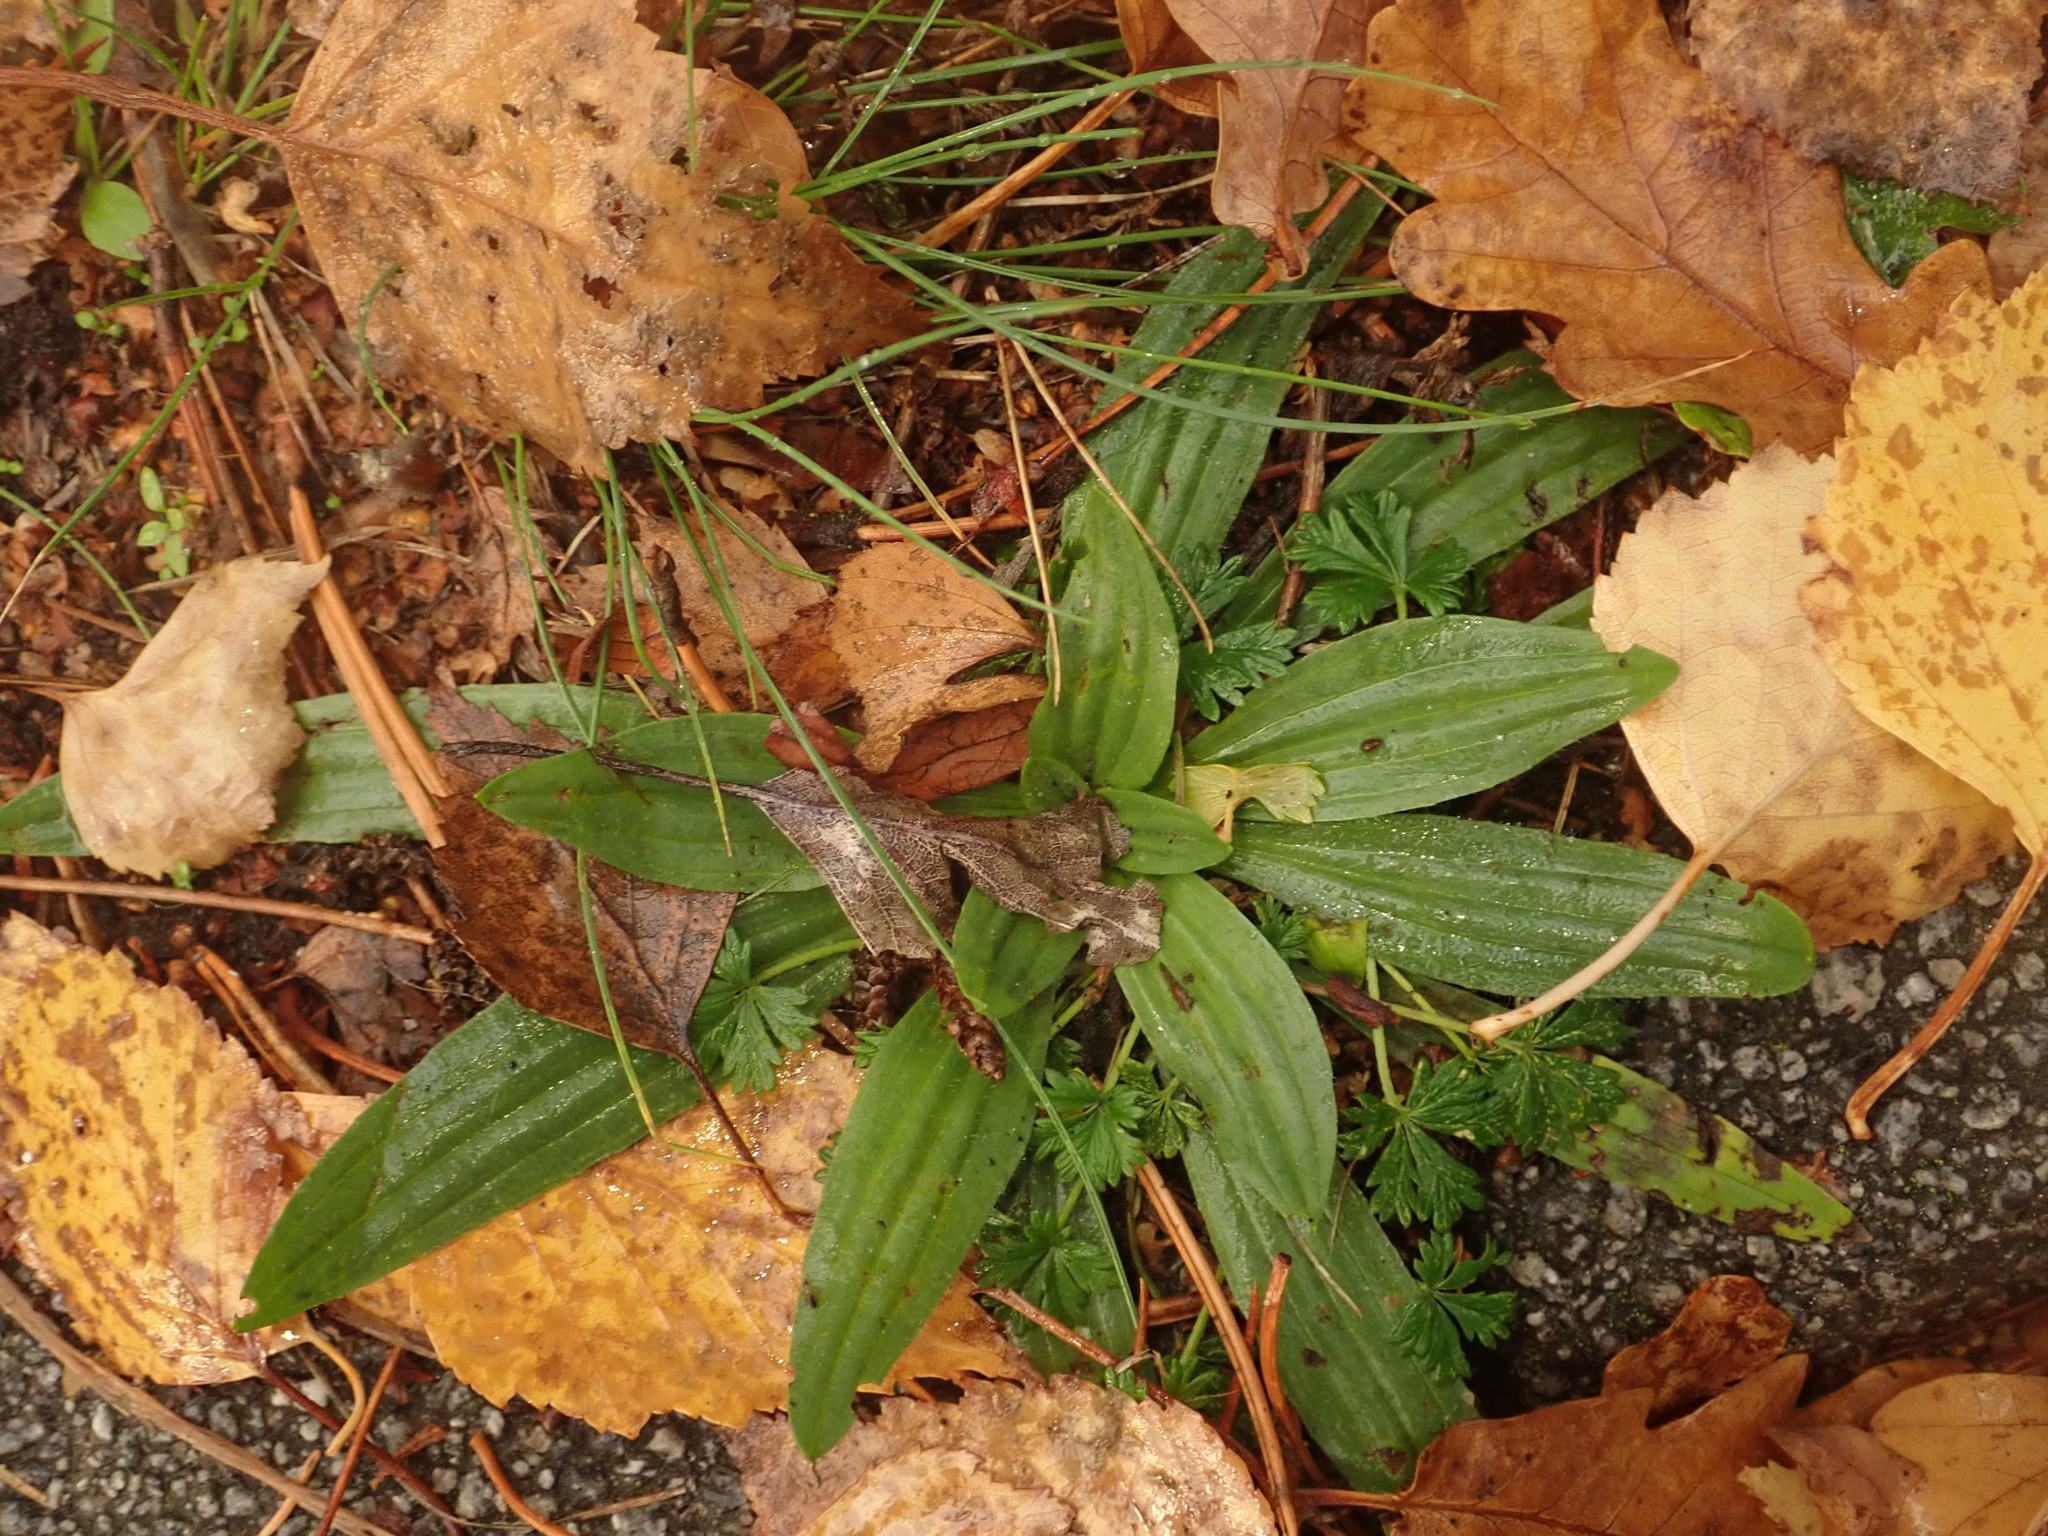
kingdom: Plantae
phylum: Tracheophyta
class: Magnoliopsida
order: Lamiales
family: Plantaginaceae
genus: Plantago
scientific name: Plantago lanceolata
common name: Ribwort plantain
